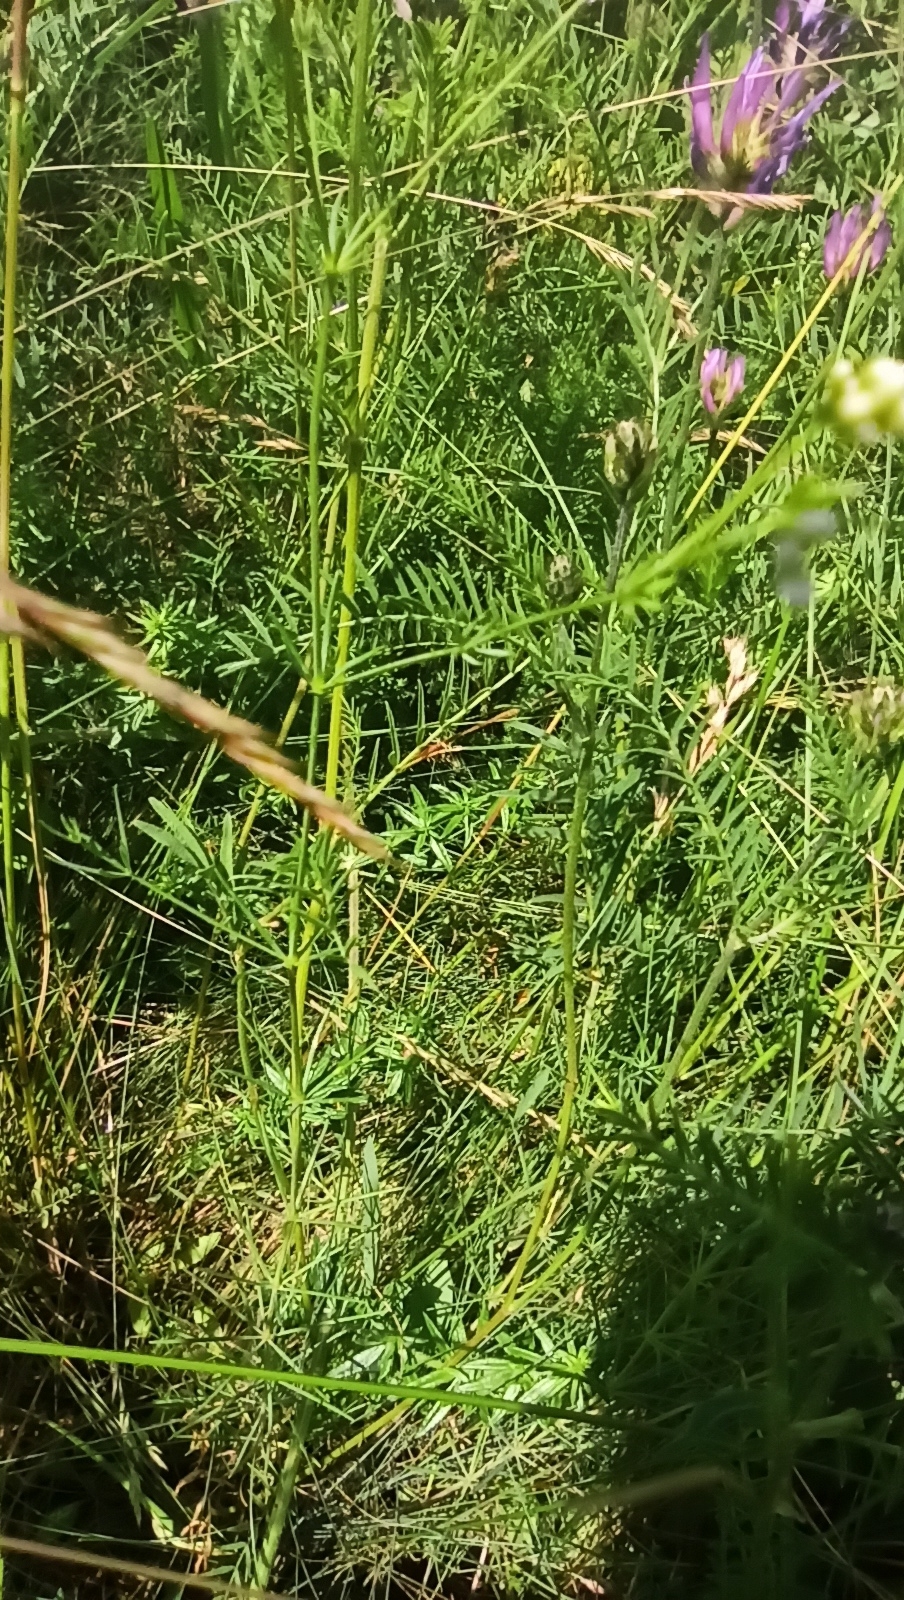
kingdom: Plantae
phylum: Tracheophyta
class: Magnoliopsida
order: Fabales
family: Fabaceae
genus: Astragalus
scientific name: Astragalus onobrychis
